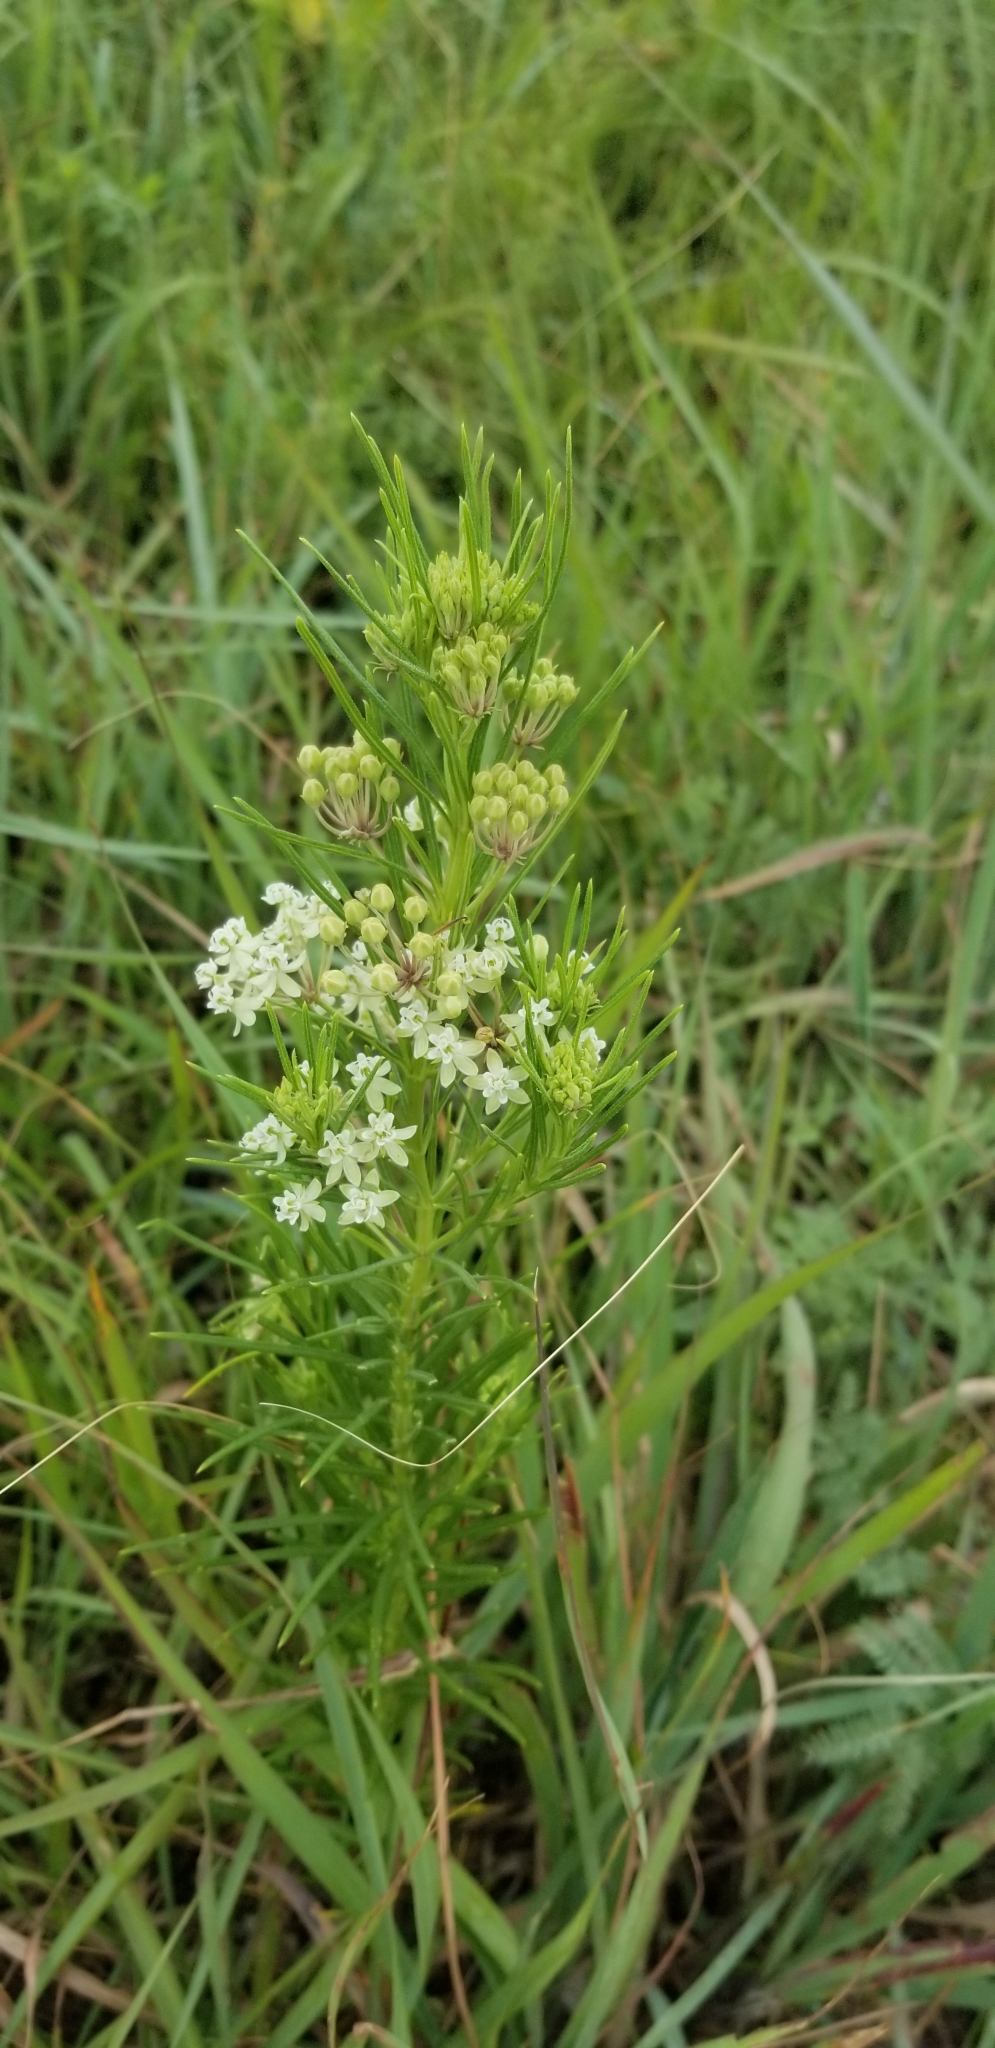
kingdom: Plantae
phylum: Tracheophyta
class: Magnoliopsida
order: Gentianales
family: Apocynaceae
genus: Asclepias
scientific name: Asclepias verticillata
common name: Eastern whorled milkweed
